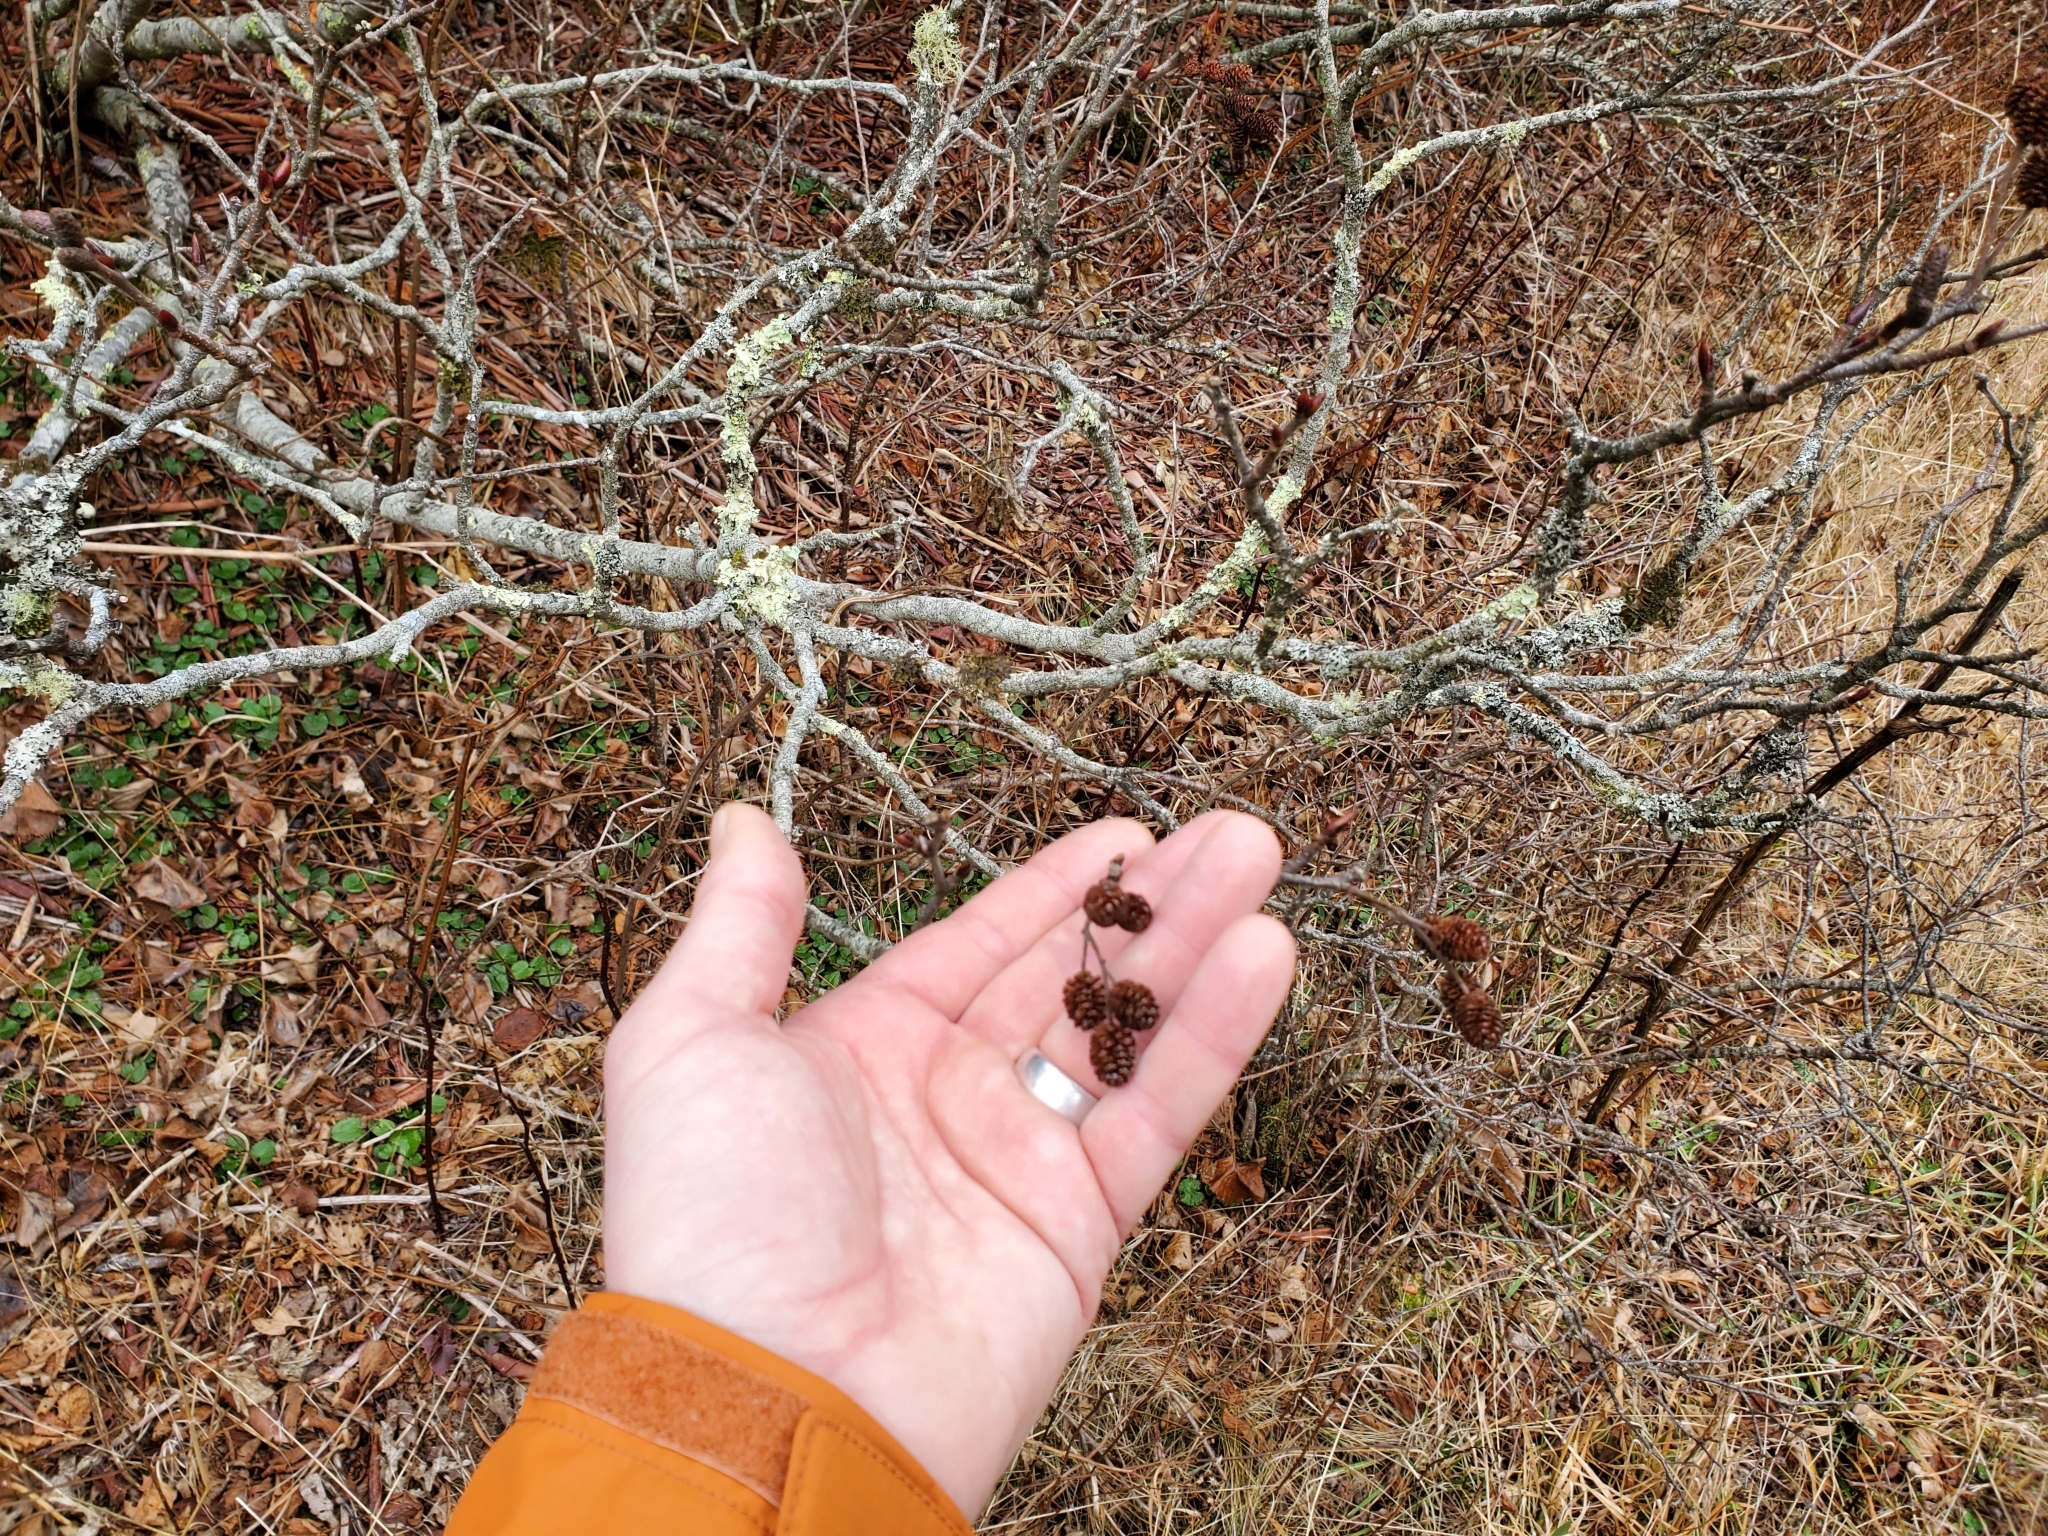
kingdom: Plantae
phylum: Tracheophyta
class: Magnoliopsida
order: Fagales
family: Betulaceae
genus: Alnus
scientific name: Alnus alnobetula
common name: Green alder
